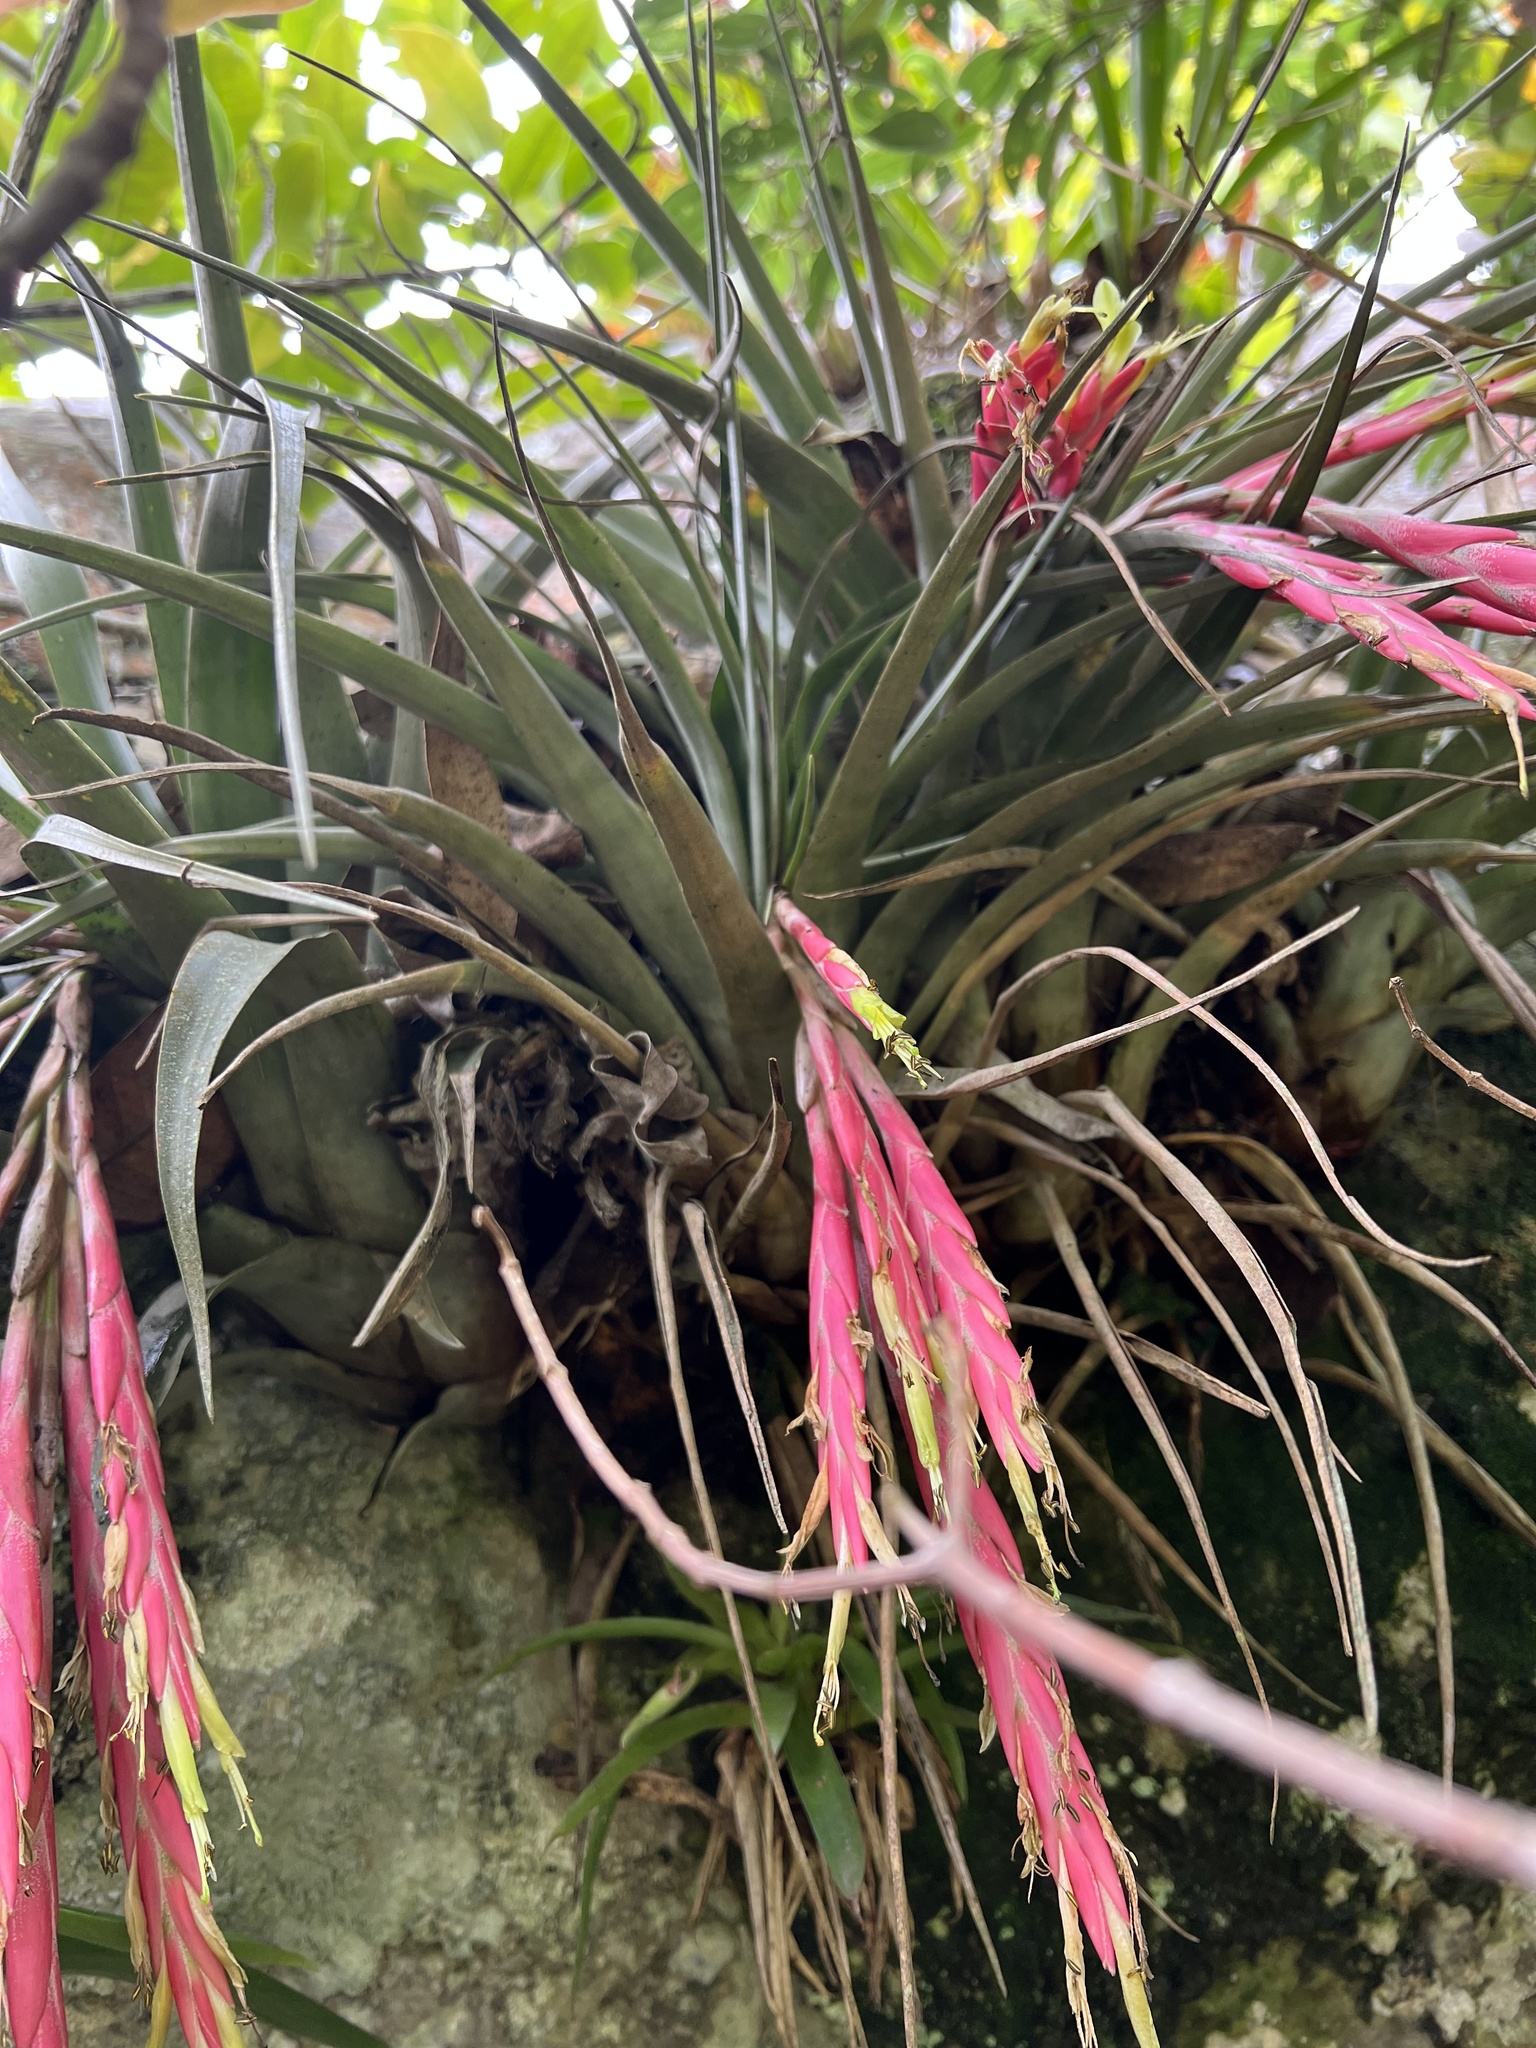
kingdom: Plantae
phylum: Tracheophyta
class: Liliopsida
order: Poales
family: Bromeliaceae
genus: Vriesea
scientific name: Vriesea incurva
